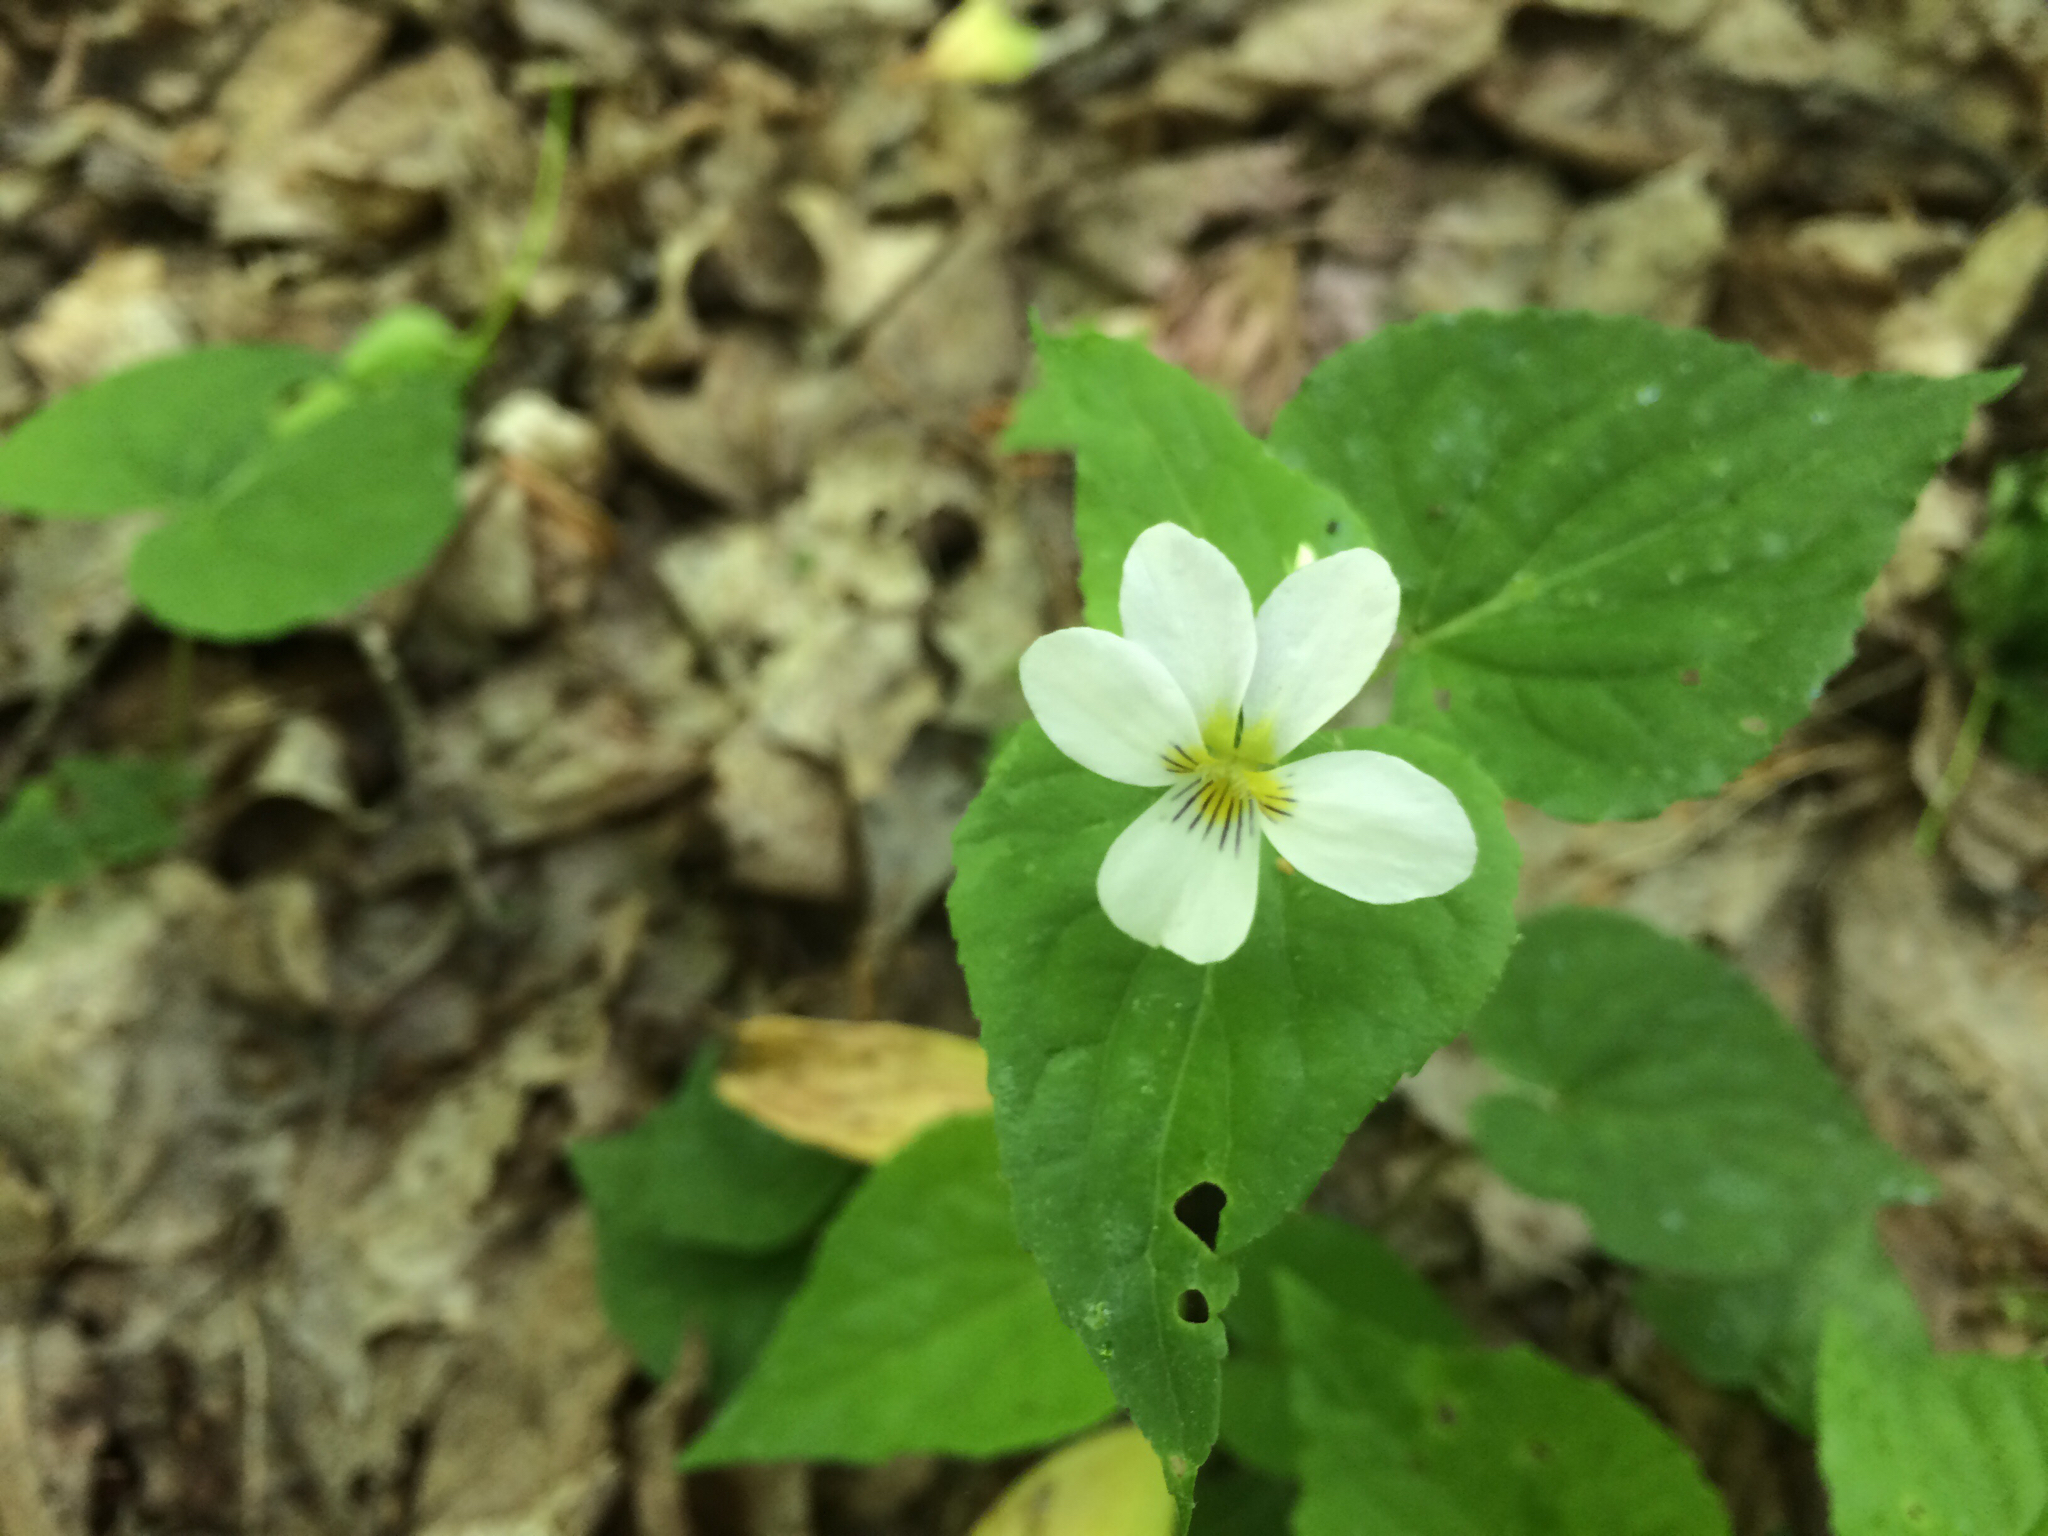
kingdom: Plantae
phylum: Tracheophyta
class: Magnoliopsida
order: Malpighiales
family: Violaceae
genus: Viola
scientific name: Viola canadensis
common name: Canada violet
